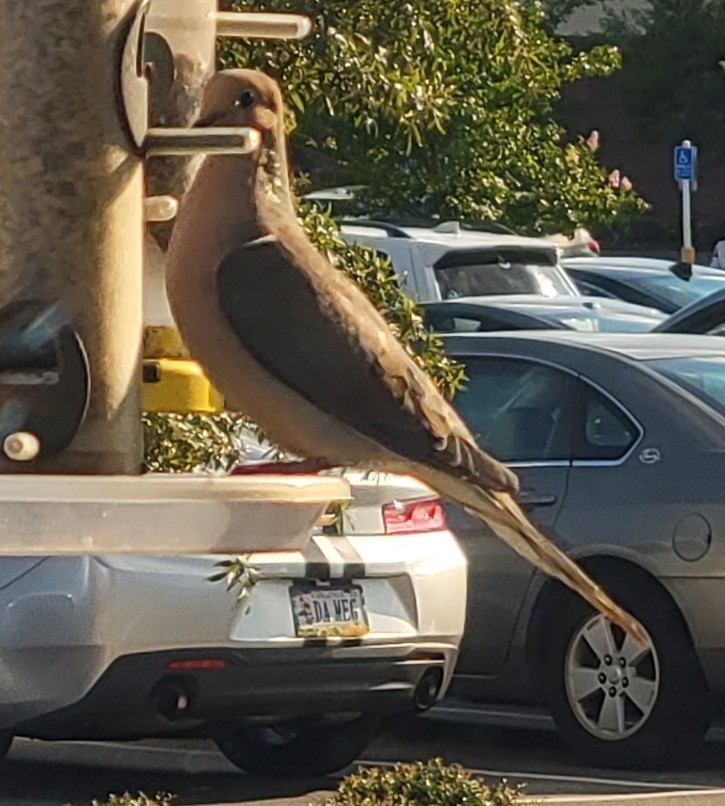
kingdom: Animalia
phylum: Chordata
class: Aves
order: Columbiformes
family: Columbidae
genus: Zenaida
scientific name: Zenaida macroura
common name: Mourning dove
